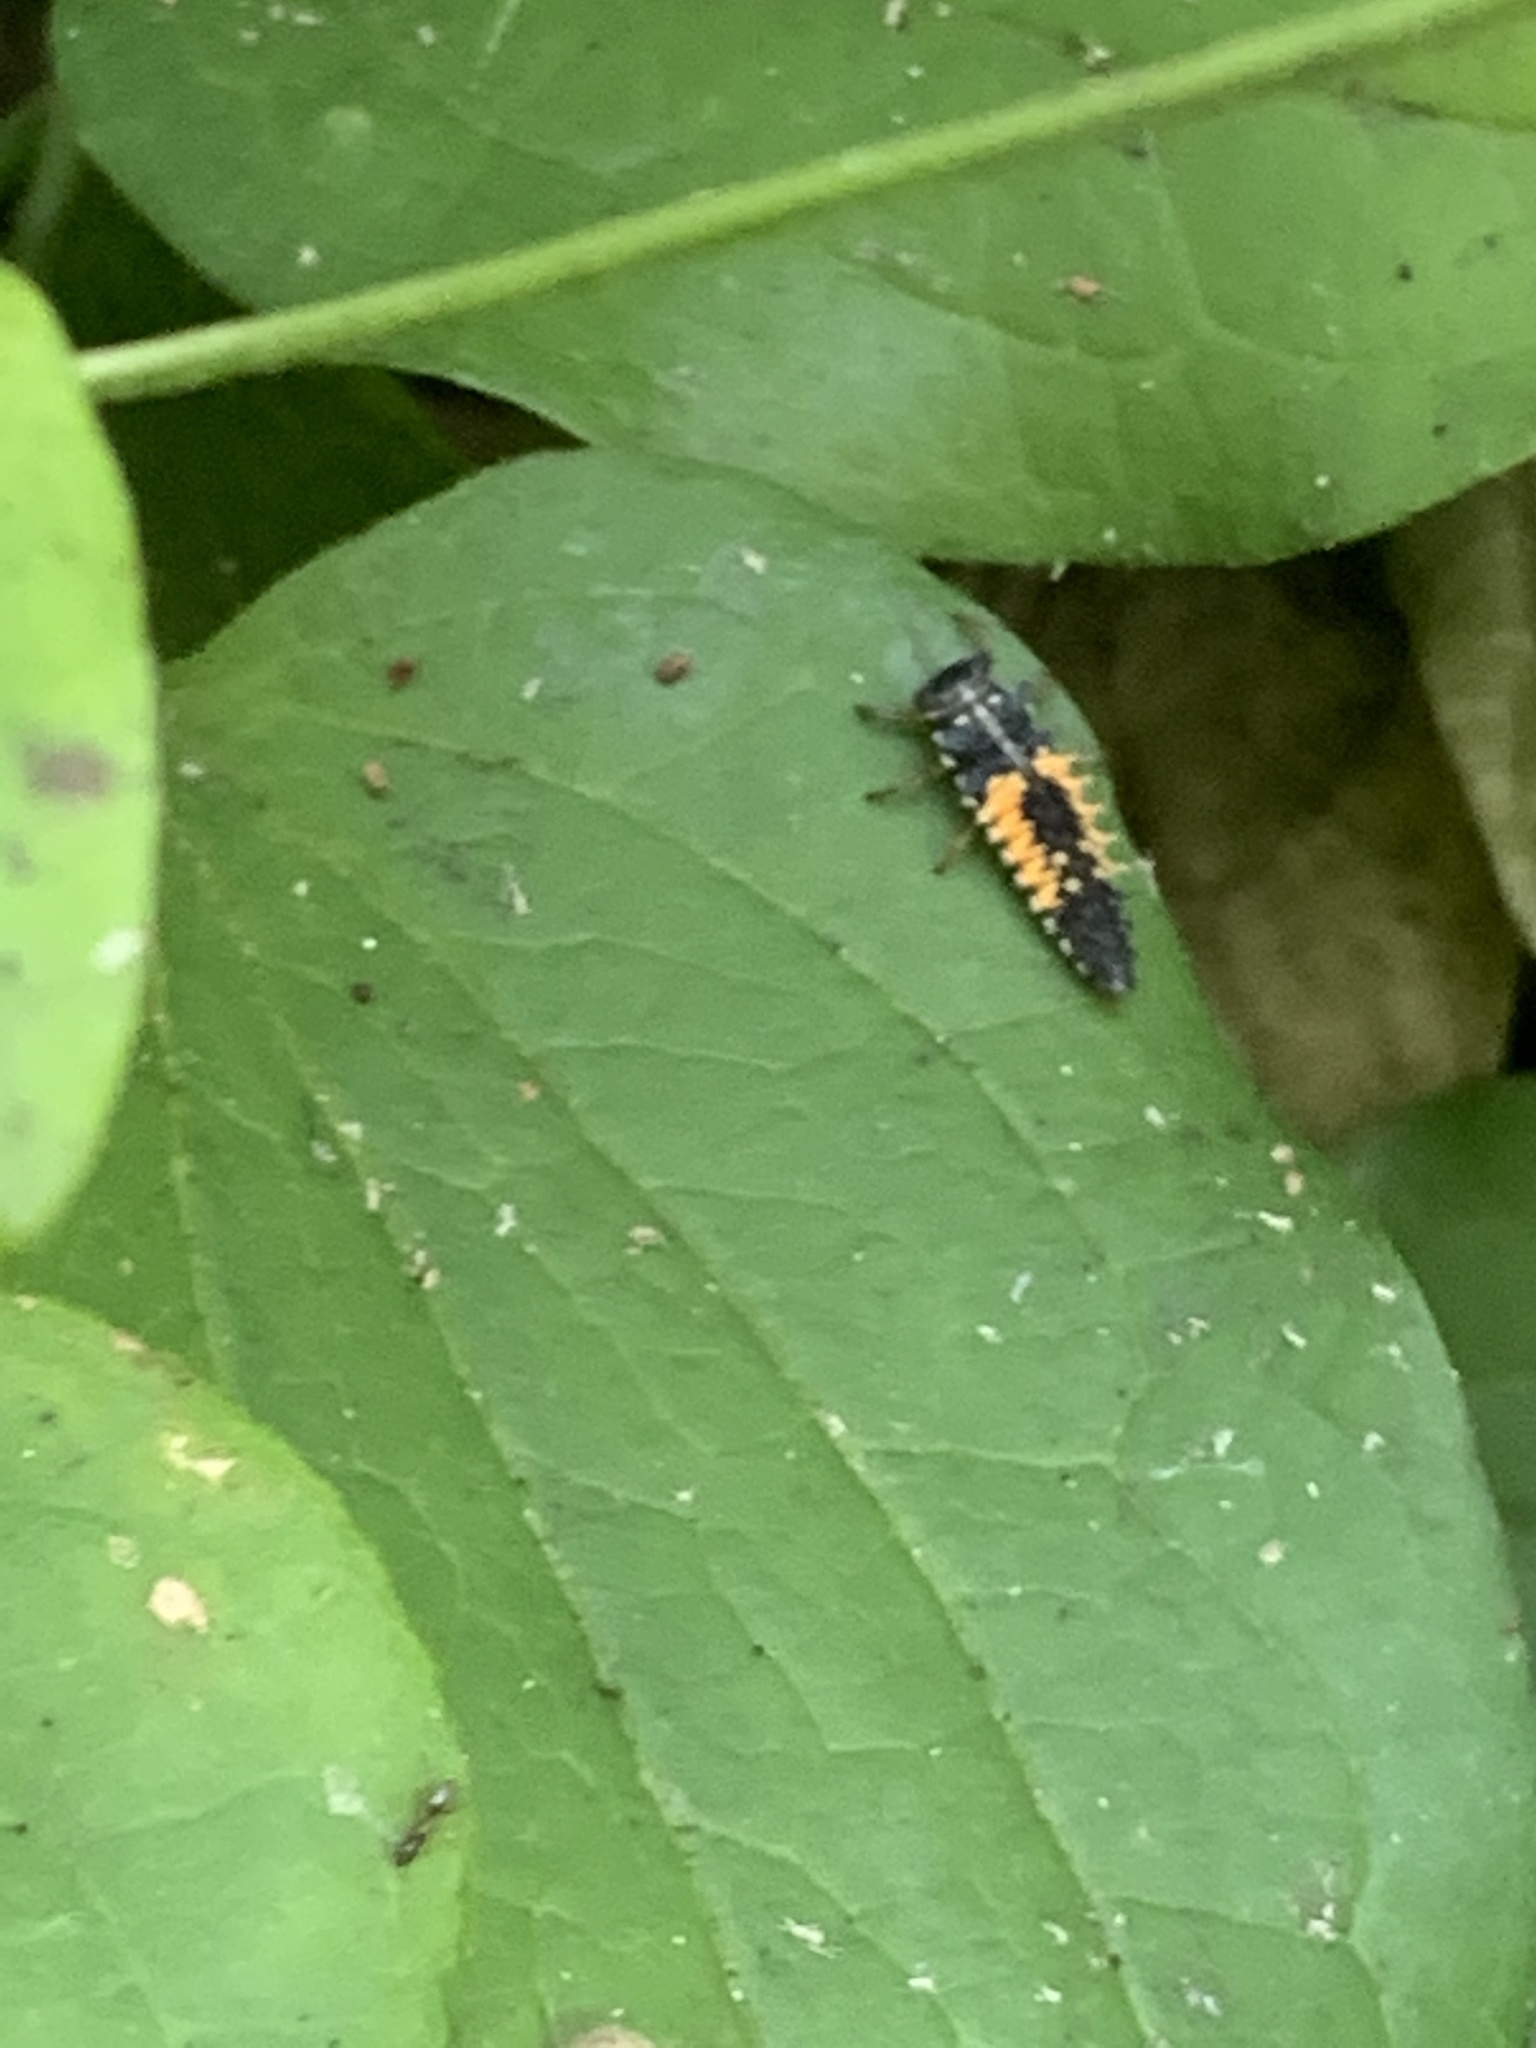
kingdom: Animalia
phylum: Arthropoda
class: Insecta
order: Coleoptera
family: Coccinellidae
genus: Harmonia
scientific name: Harmonia axyridis
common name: Harlequin ladybird
